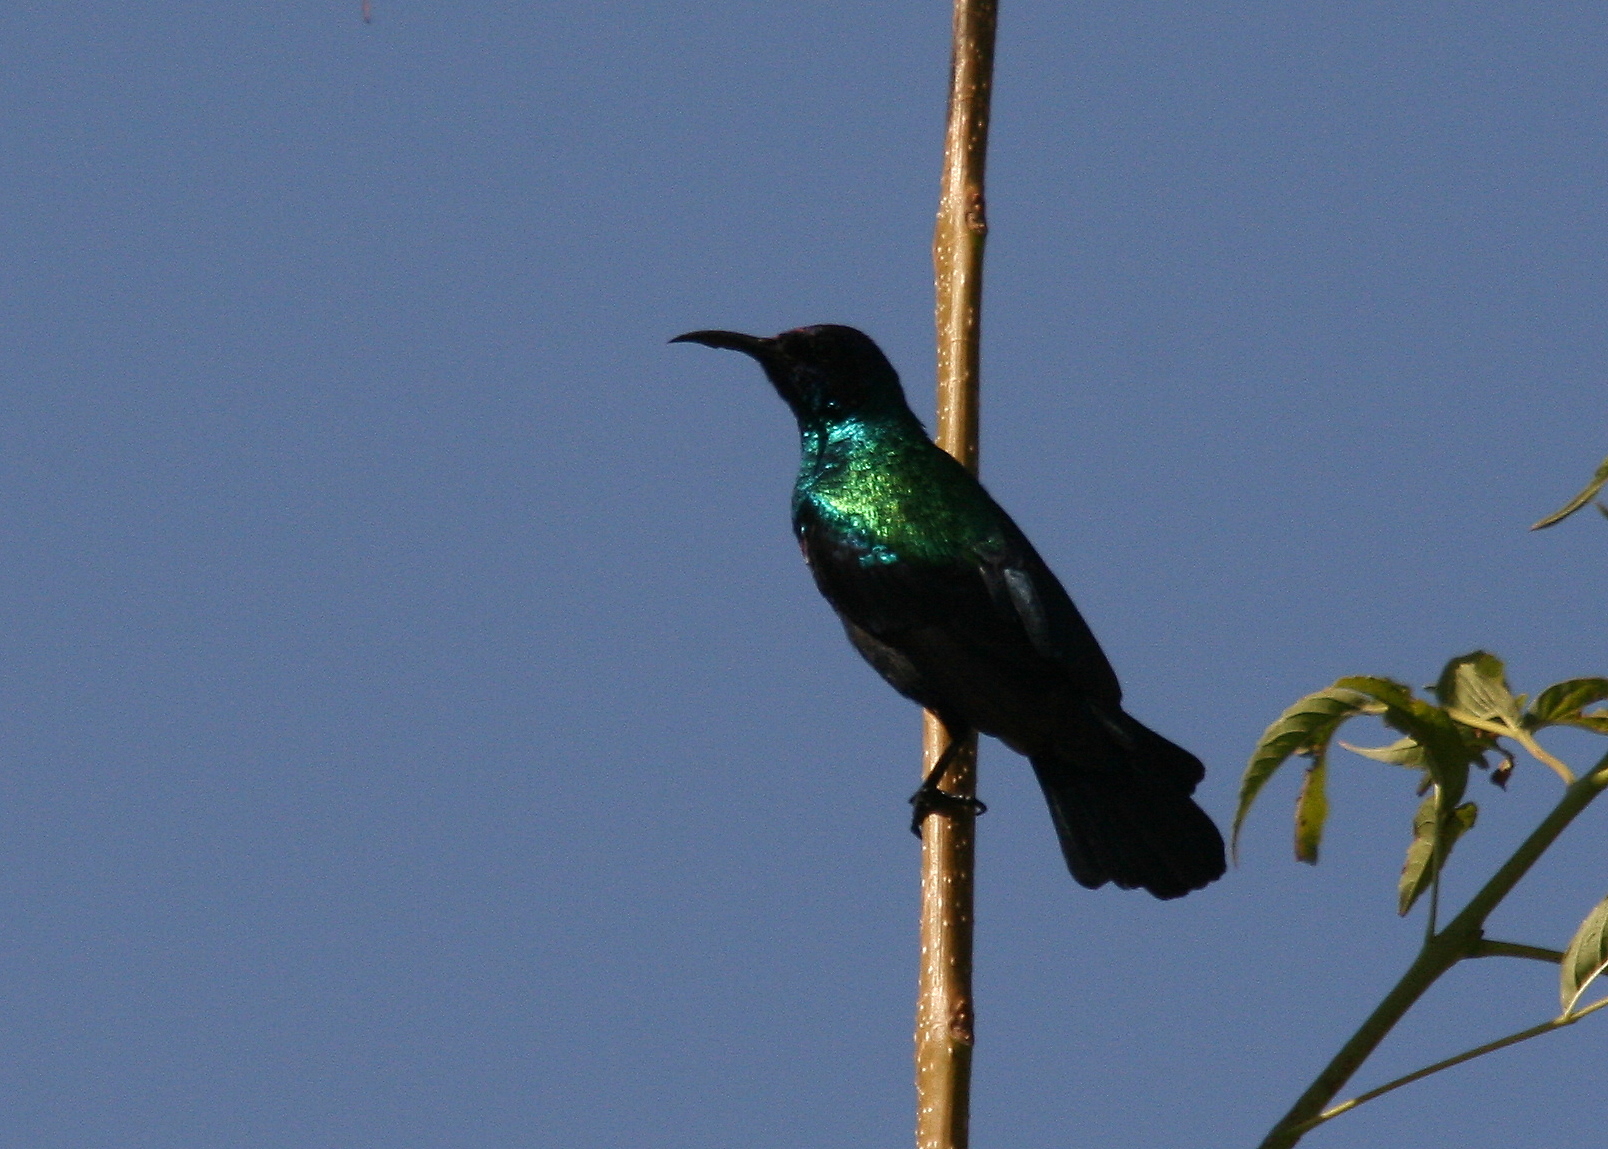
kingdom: Animalia
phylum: Chordata
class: Aves
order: Passeriformes
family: Nectariniidae
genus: Cinnyris
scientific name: Cinnyris habessinicus
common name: Shining sunbird
